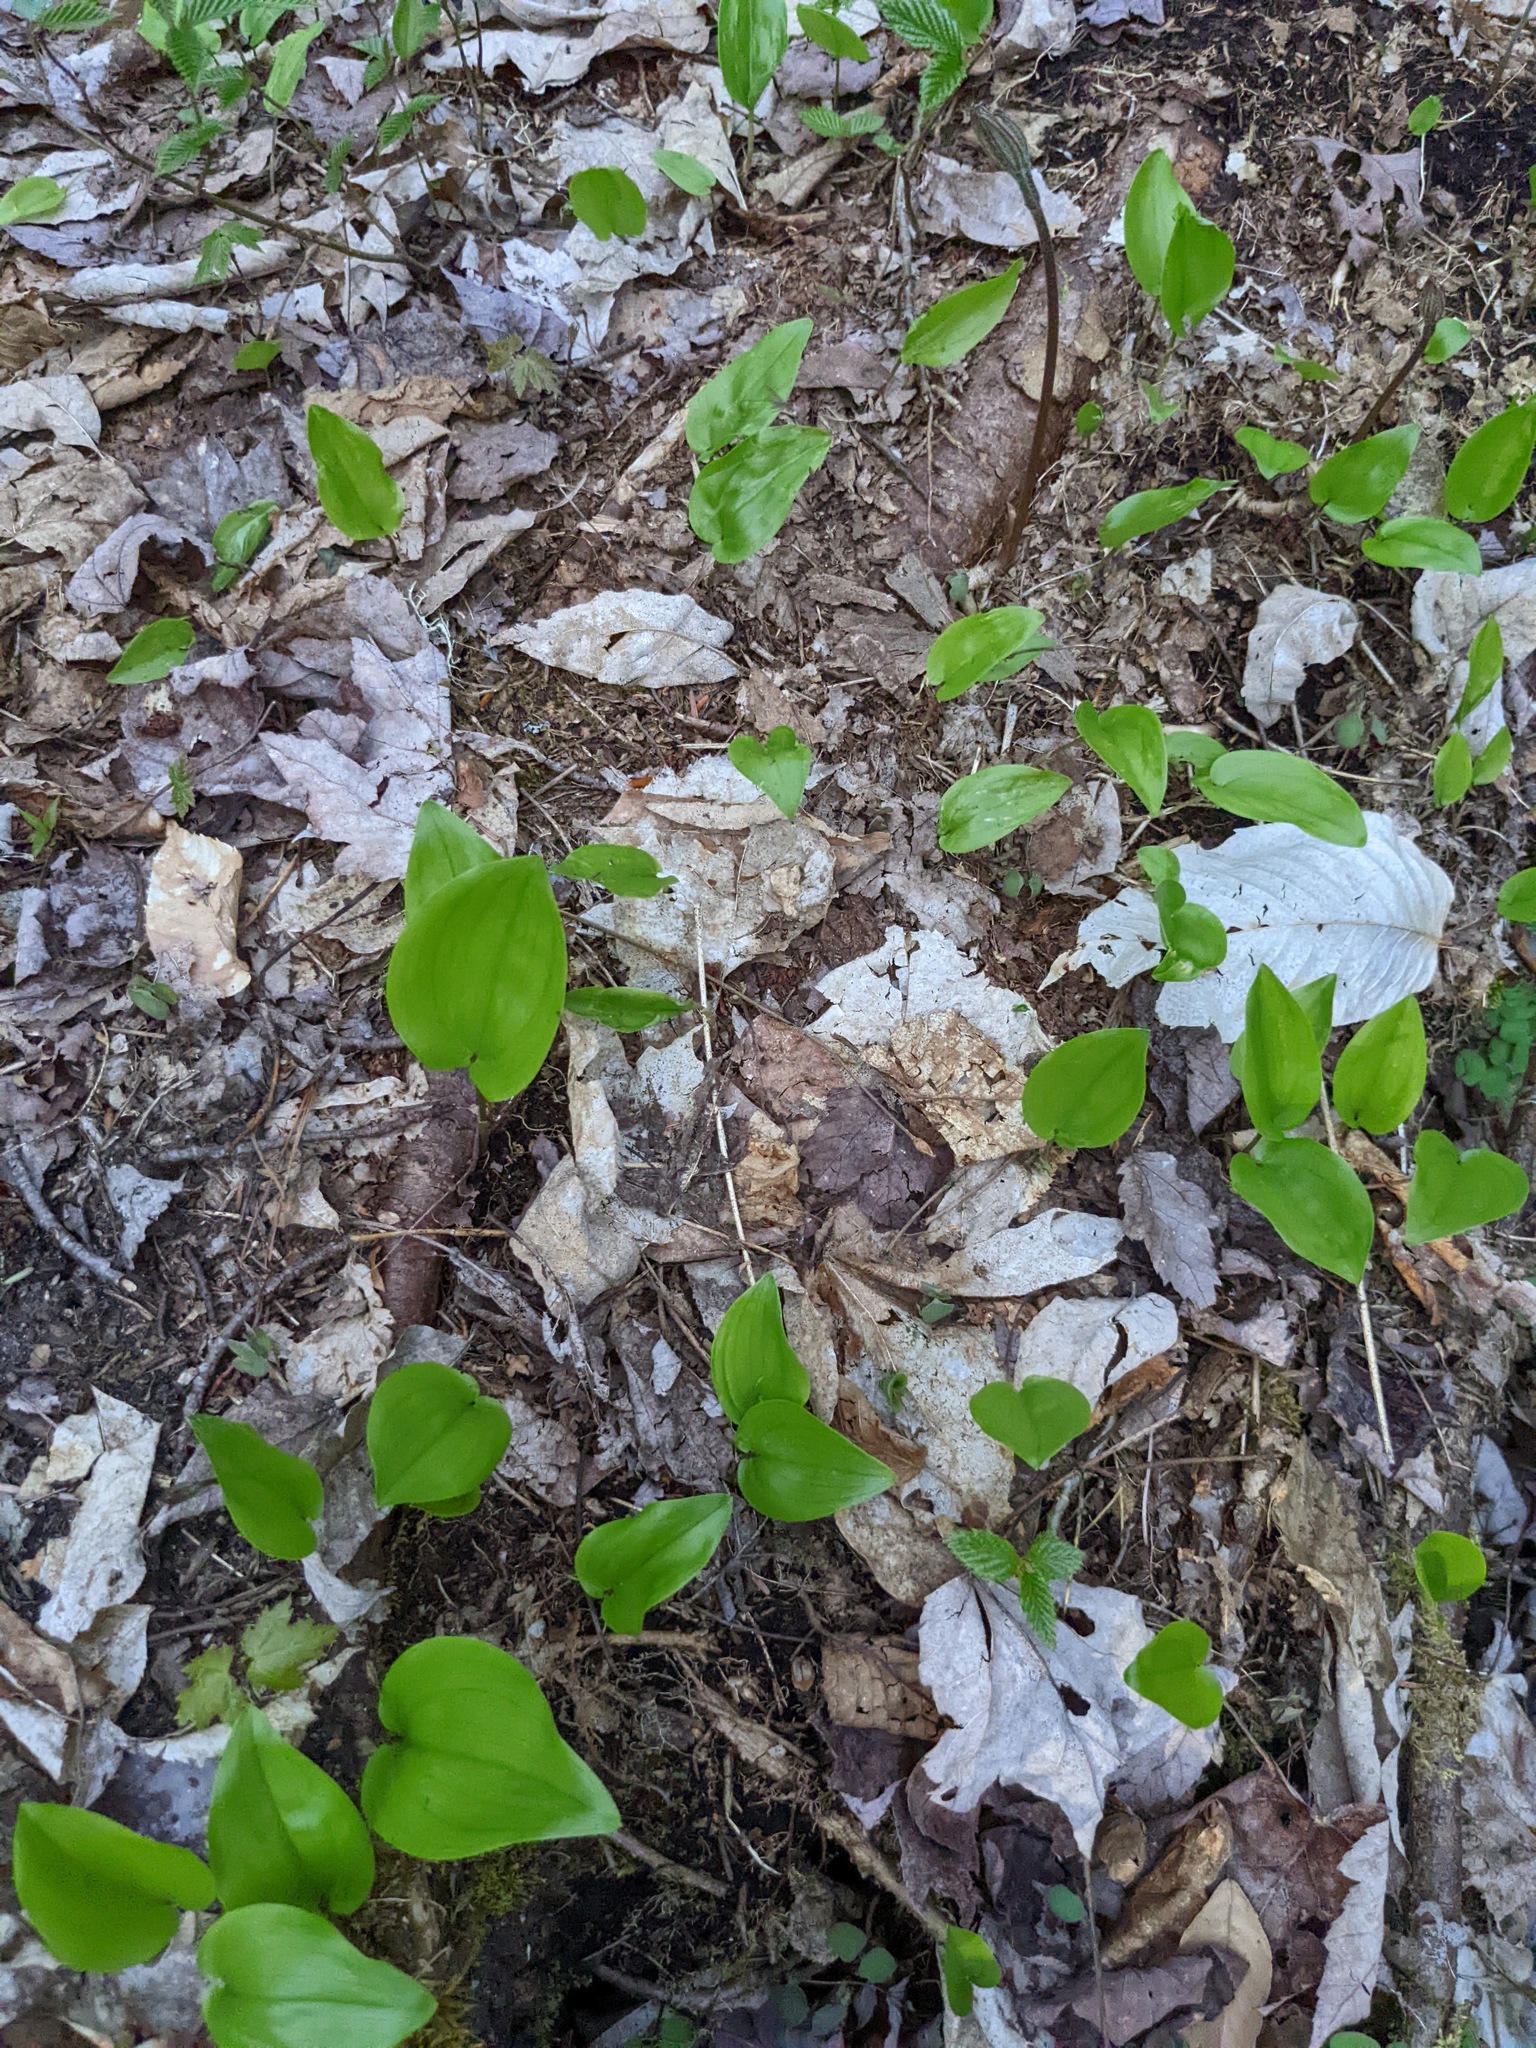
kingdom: Plantae
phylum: Tracheophyta
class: Liliopsida
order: Asparagales
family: Asparagaceae
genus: Maianthemum
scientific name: Maianthemum canadense
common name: False lily-of-the-valley
